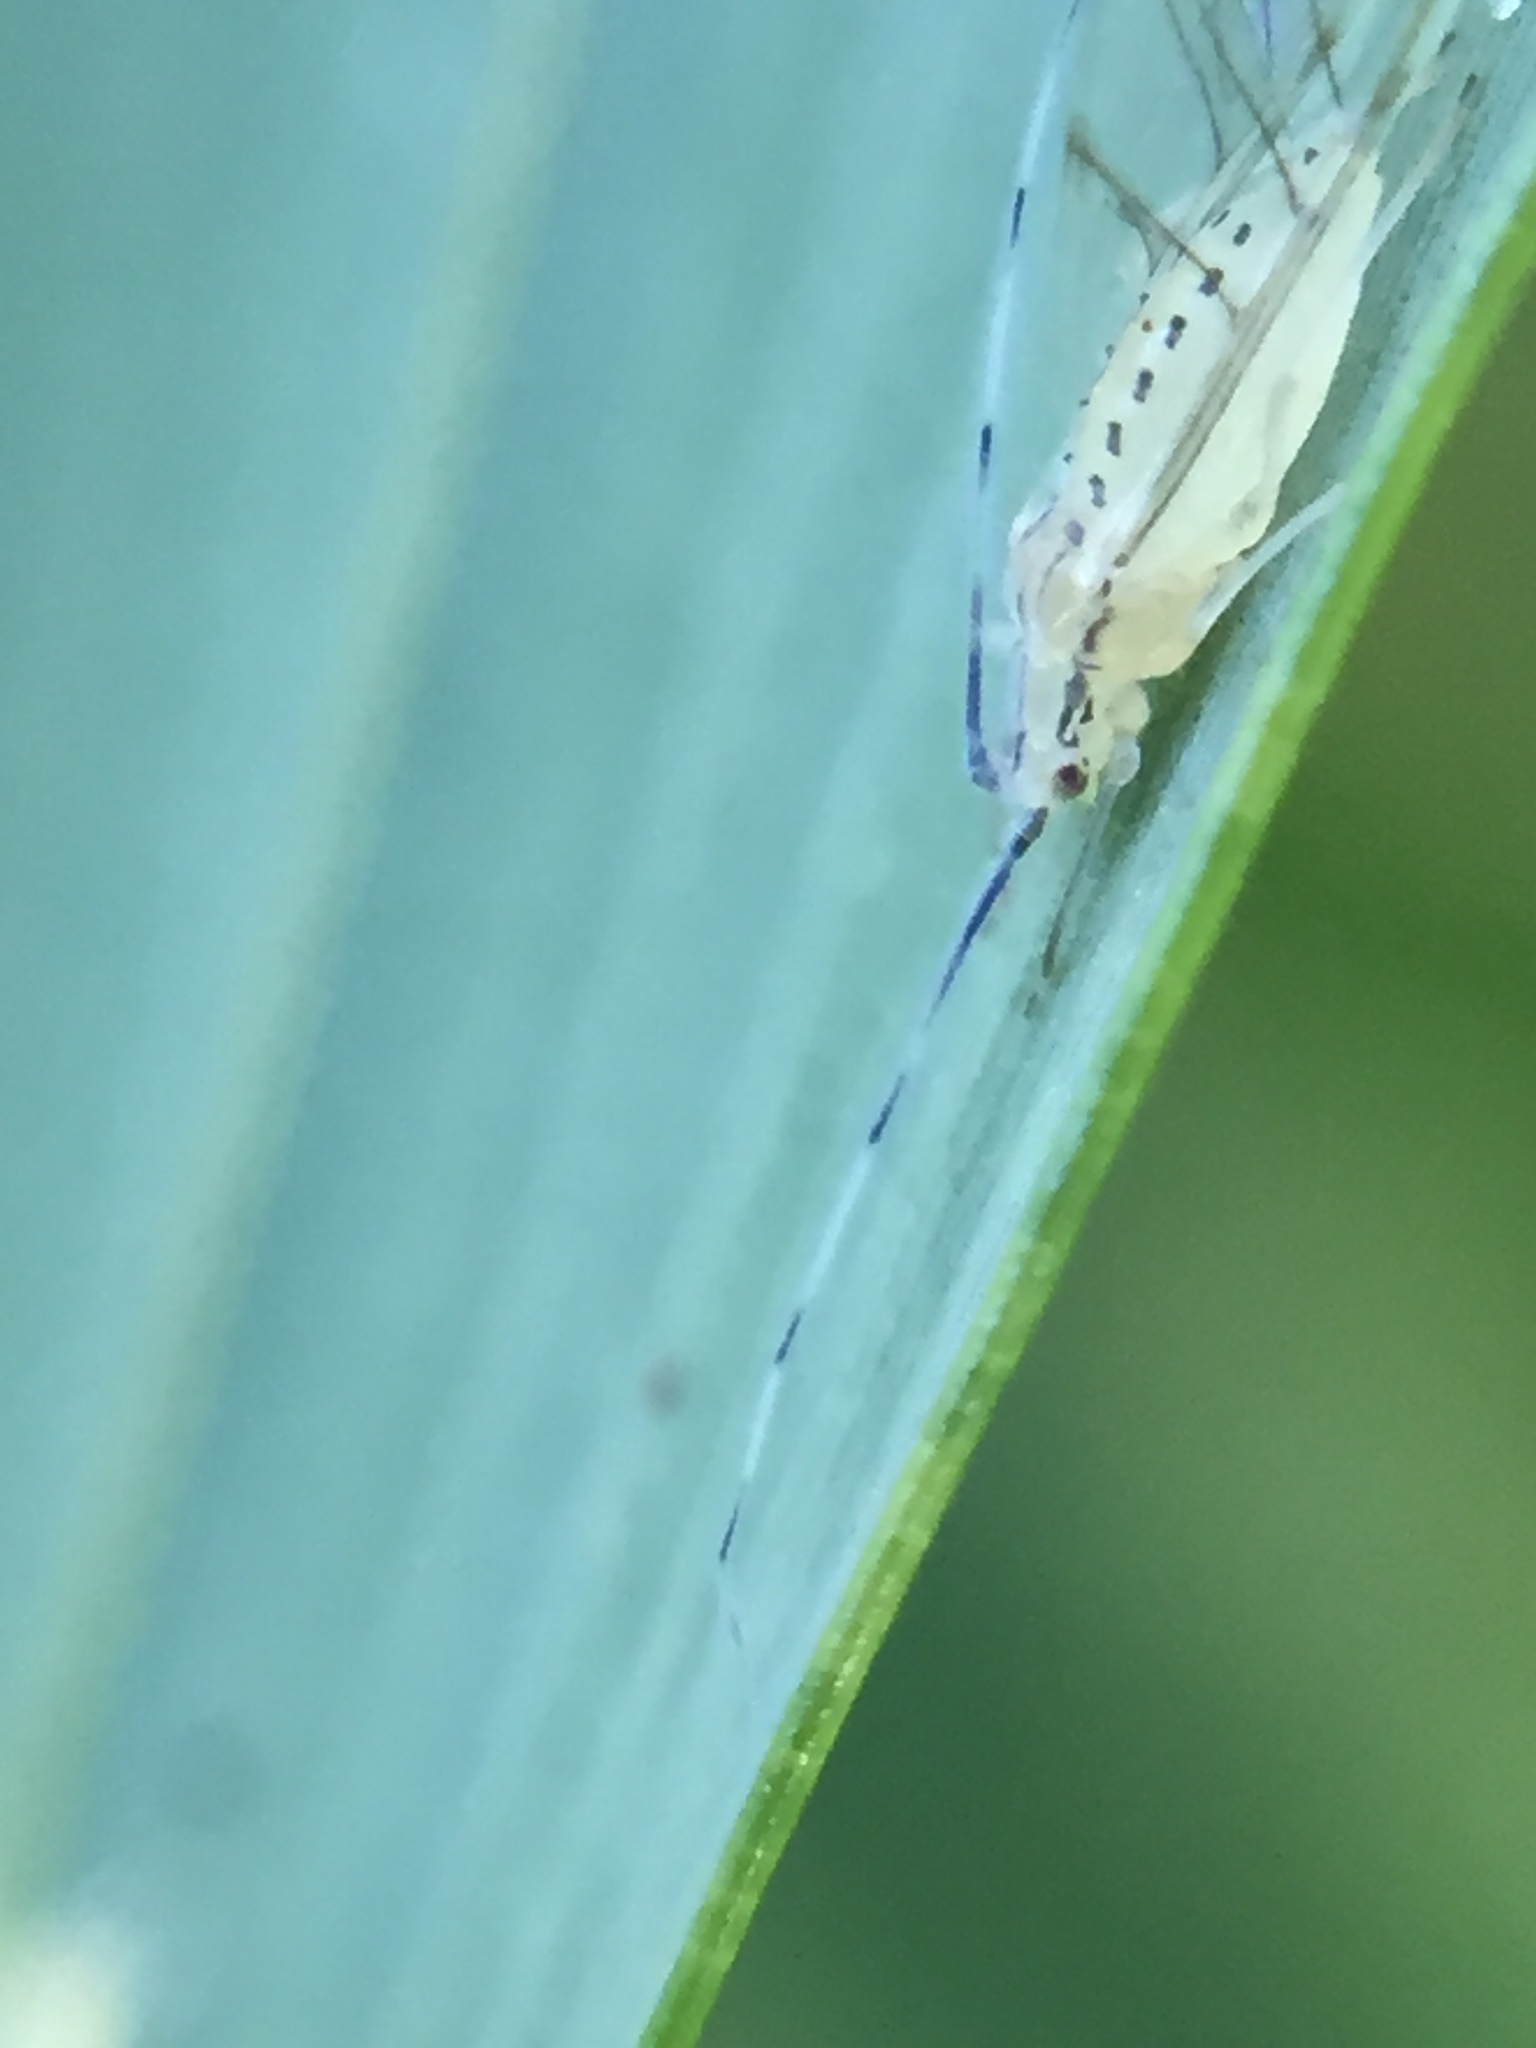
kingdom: Animalia
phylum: Arthropoda
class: Insecta
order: Hemiptera
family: Aphididae
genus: Takecallis
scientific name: Takecallis arundinariae
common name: Black-tailed bamboo aphid
